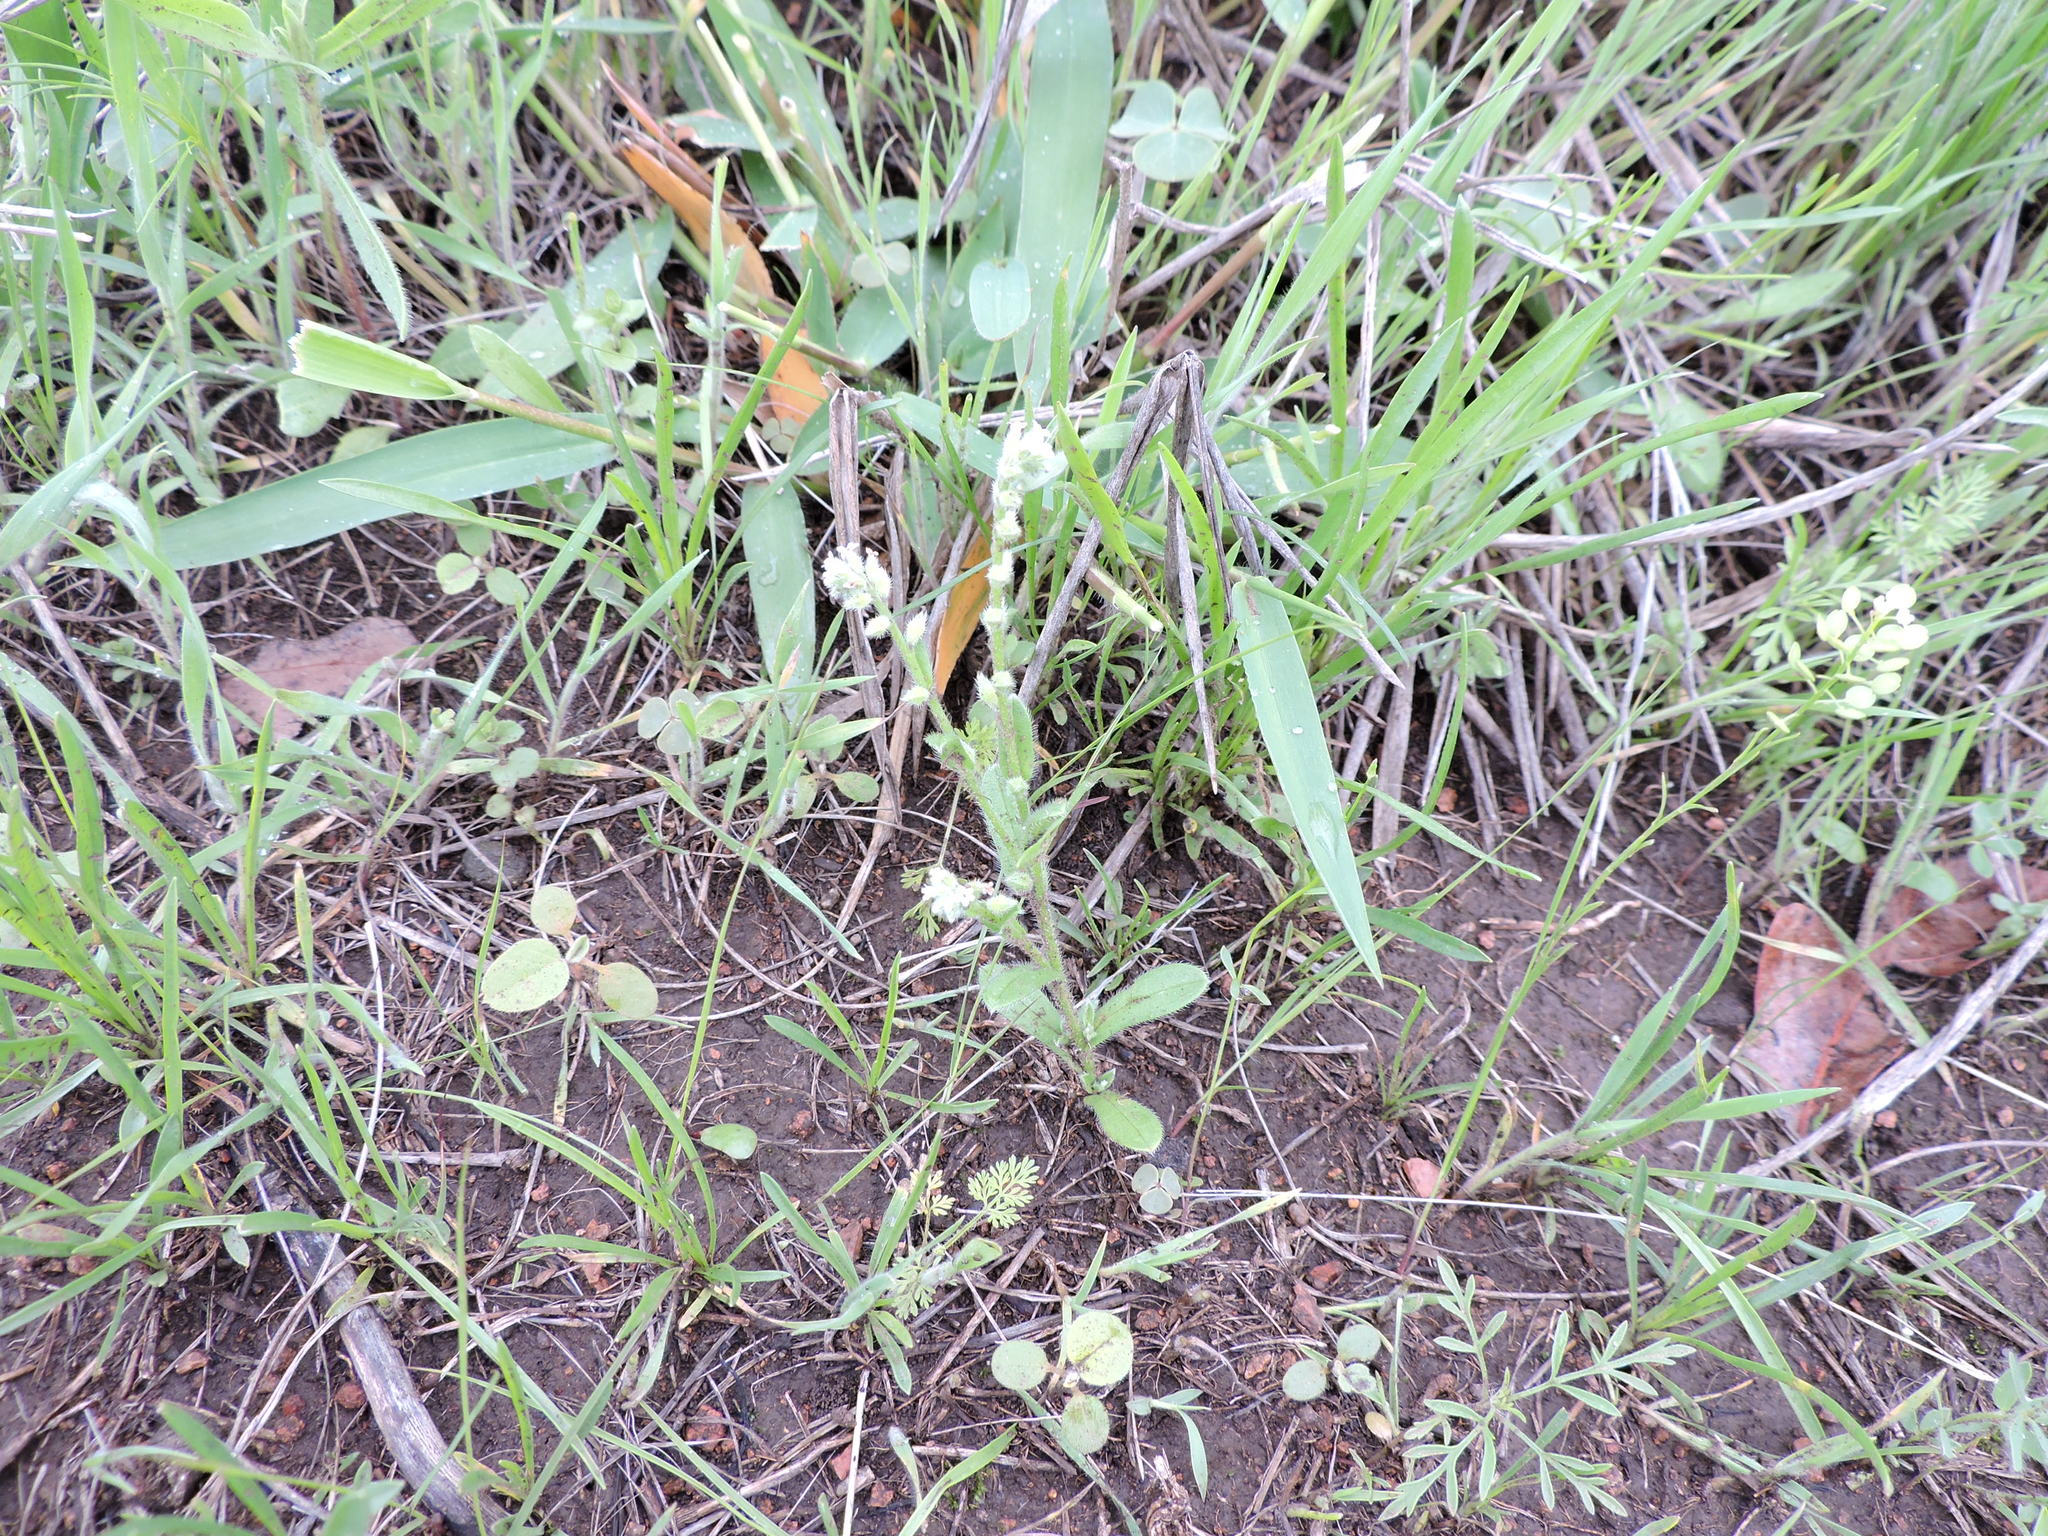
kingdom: Plantae
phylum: Tracheophyta
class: Magnoliopsida
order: Boraginales
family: Boraginaceae
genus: Myosotis
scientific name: Myosotis macrosperma
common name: Large-seed forget-me-not
